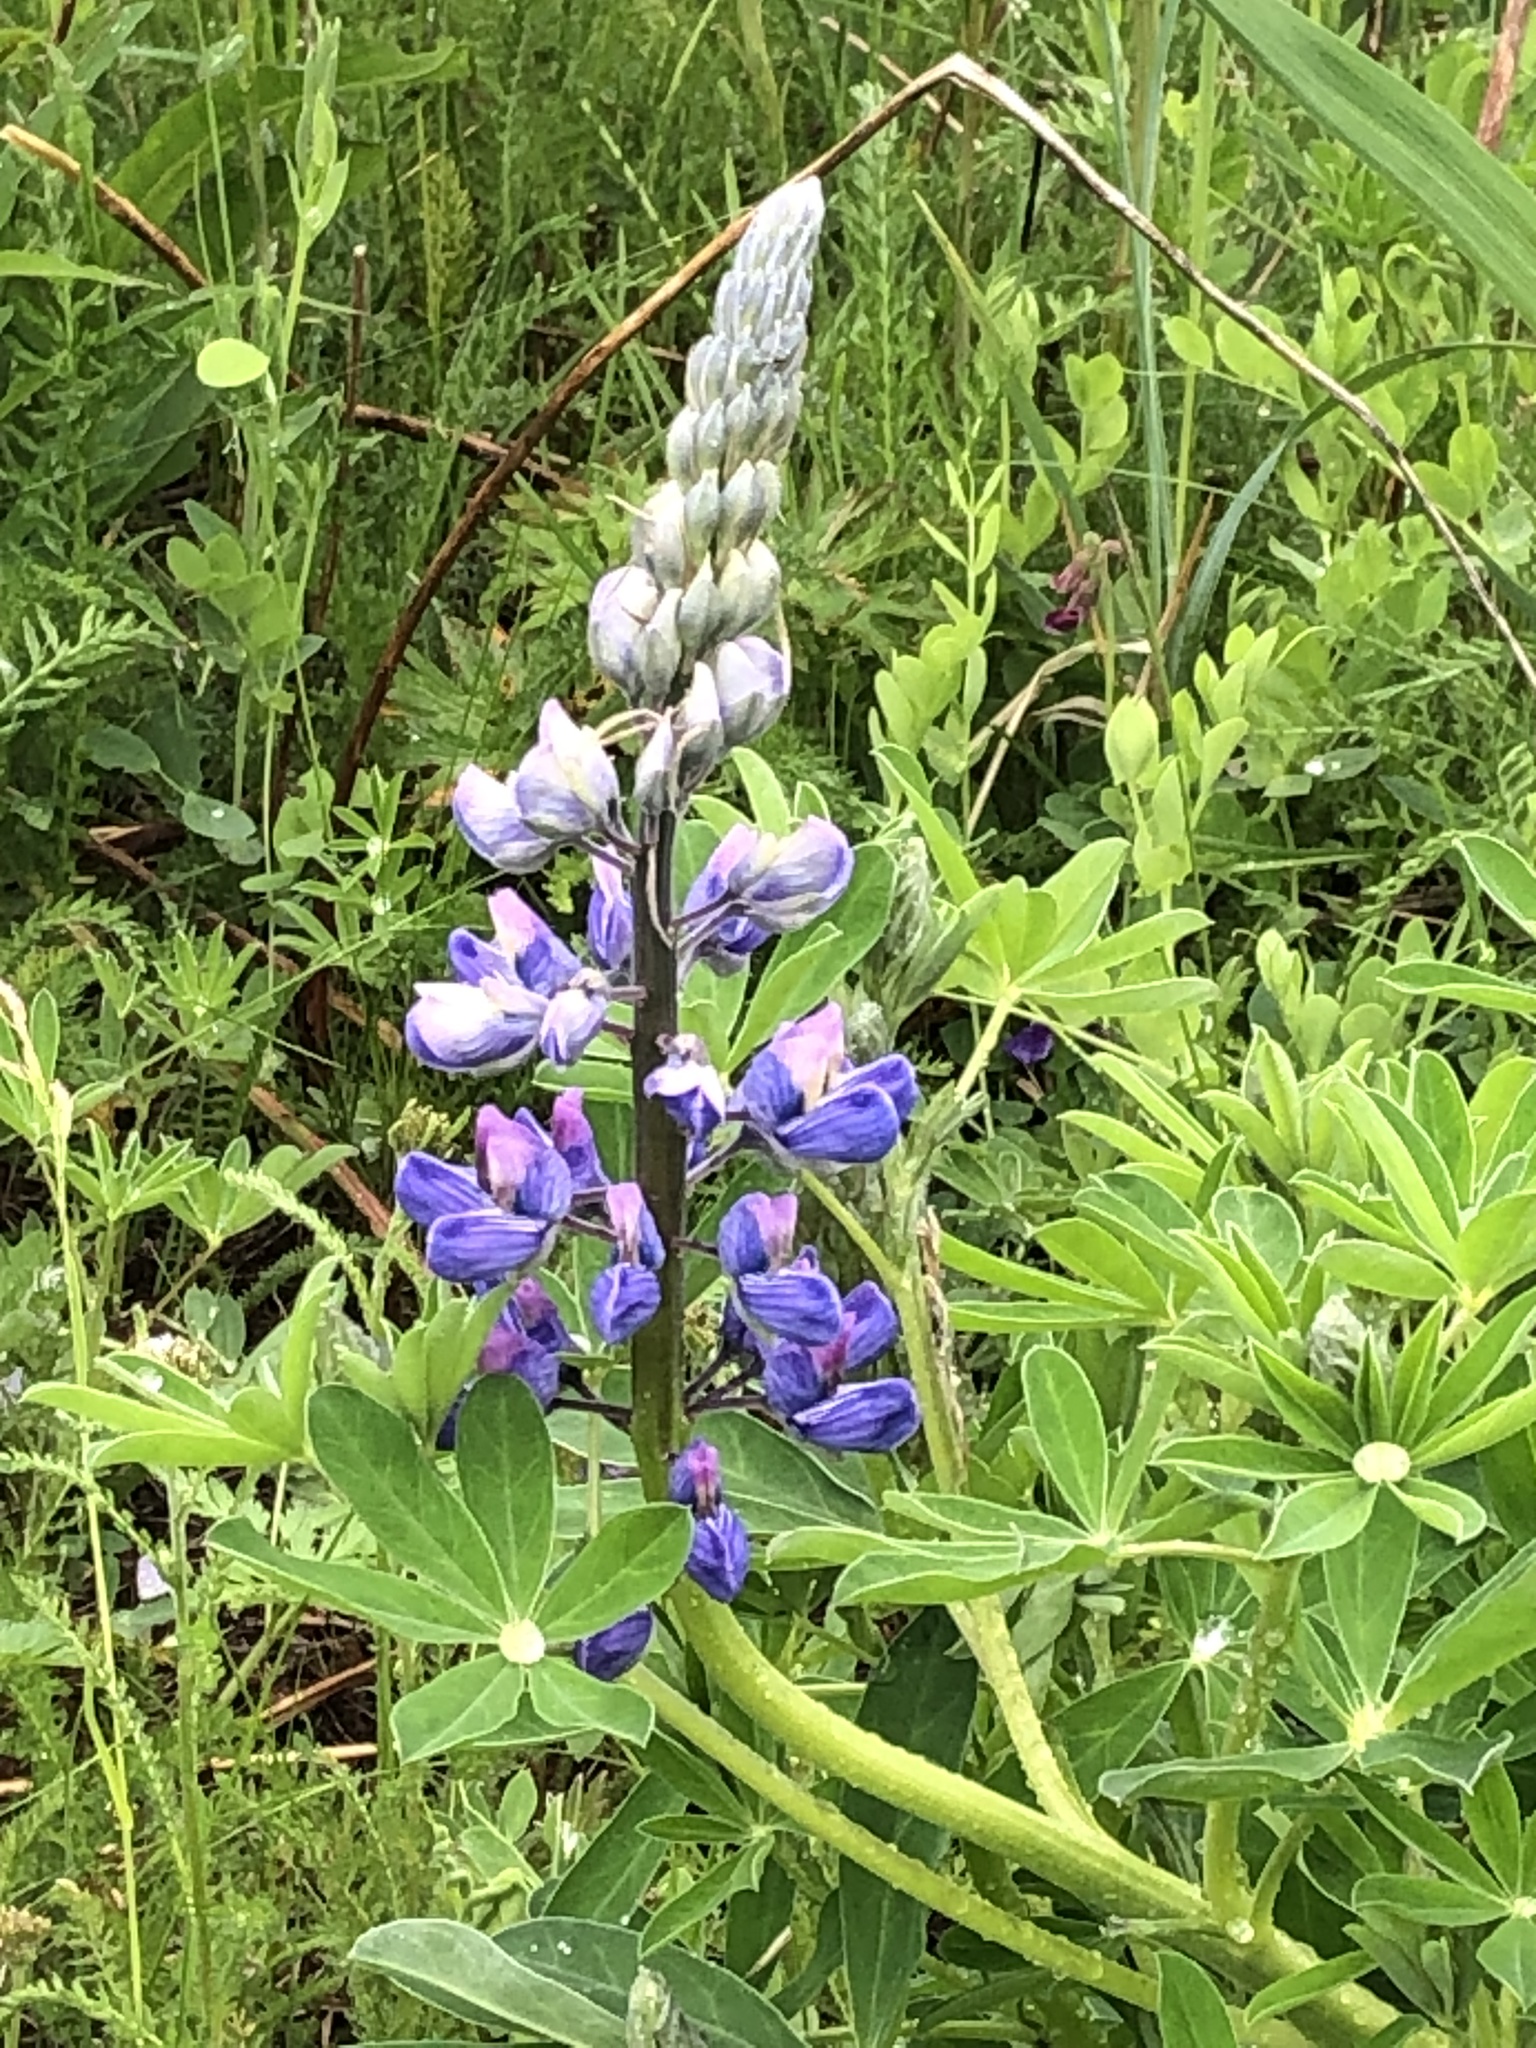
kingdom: Plantae
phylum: Tracheophyta
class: Magnoliopsida
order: Fabales
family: Fabaceae
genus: Lupinus
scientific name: Lupinus nootkatensis
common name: Nootka lupine
